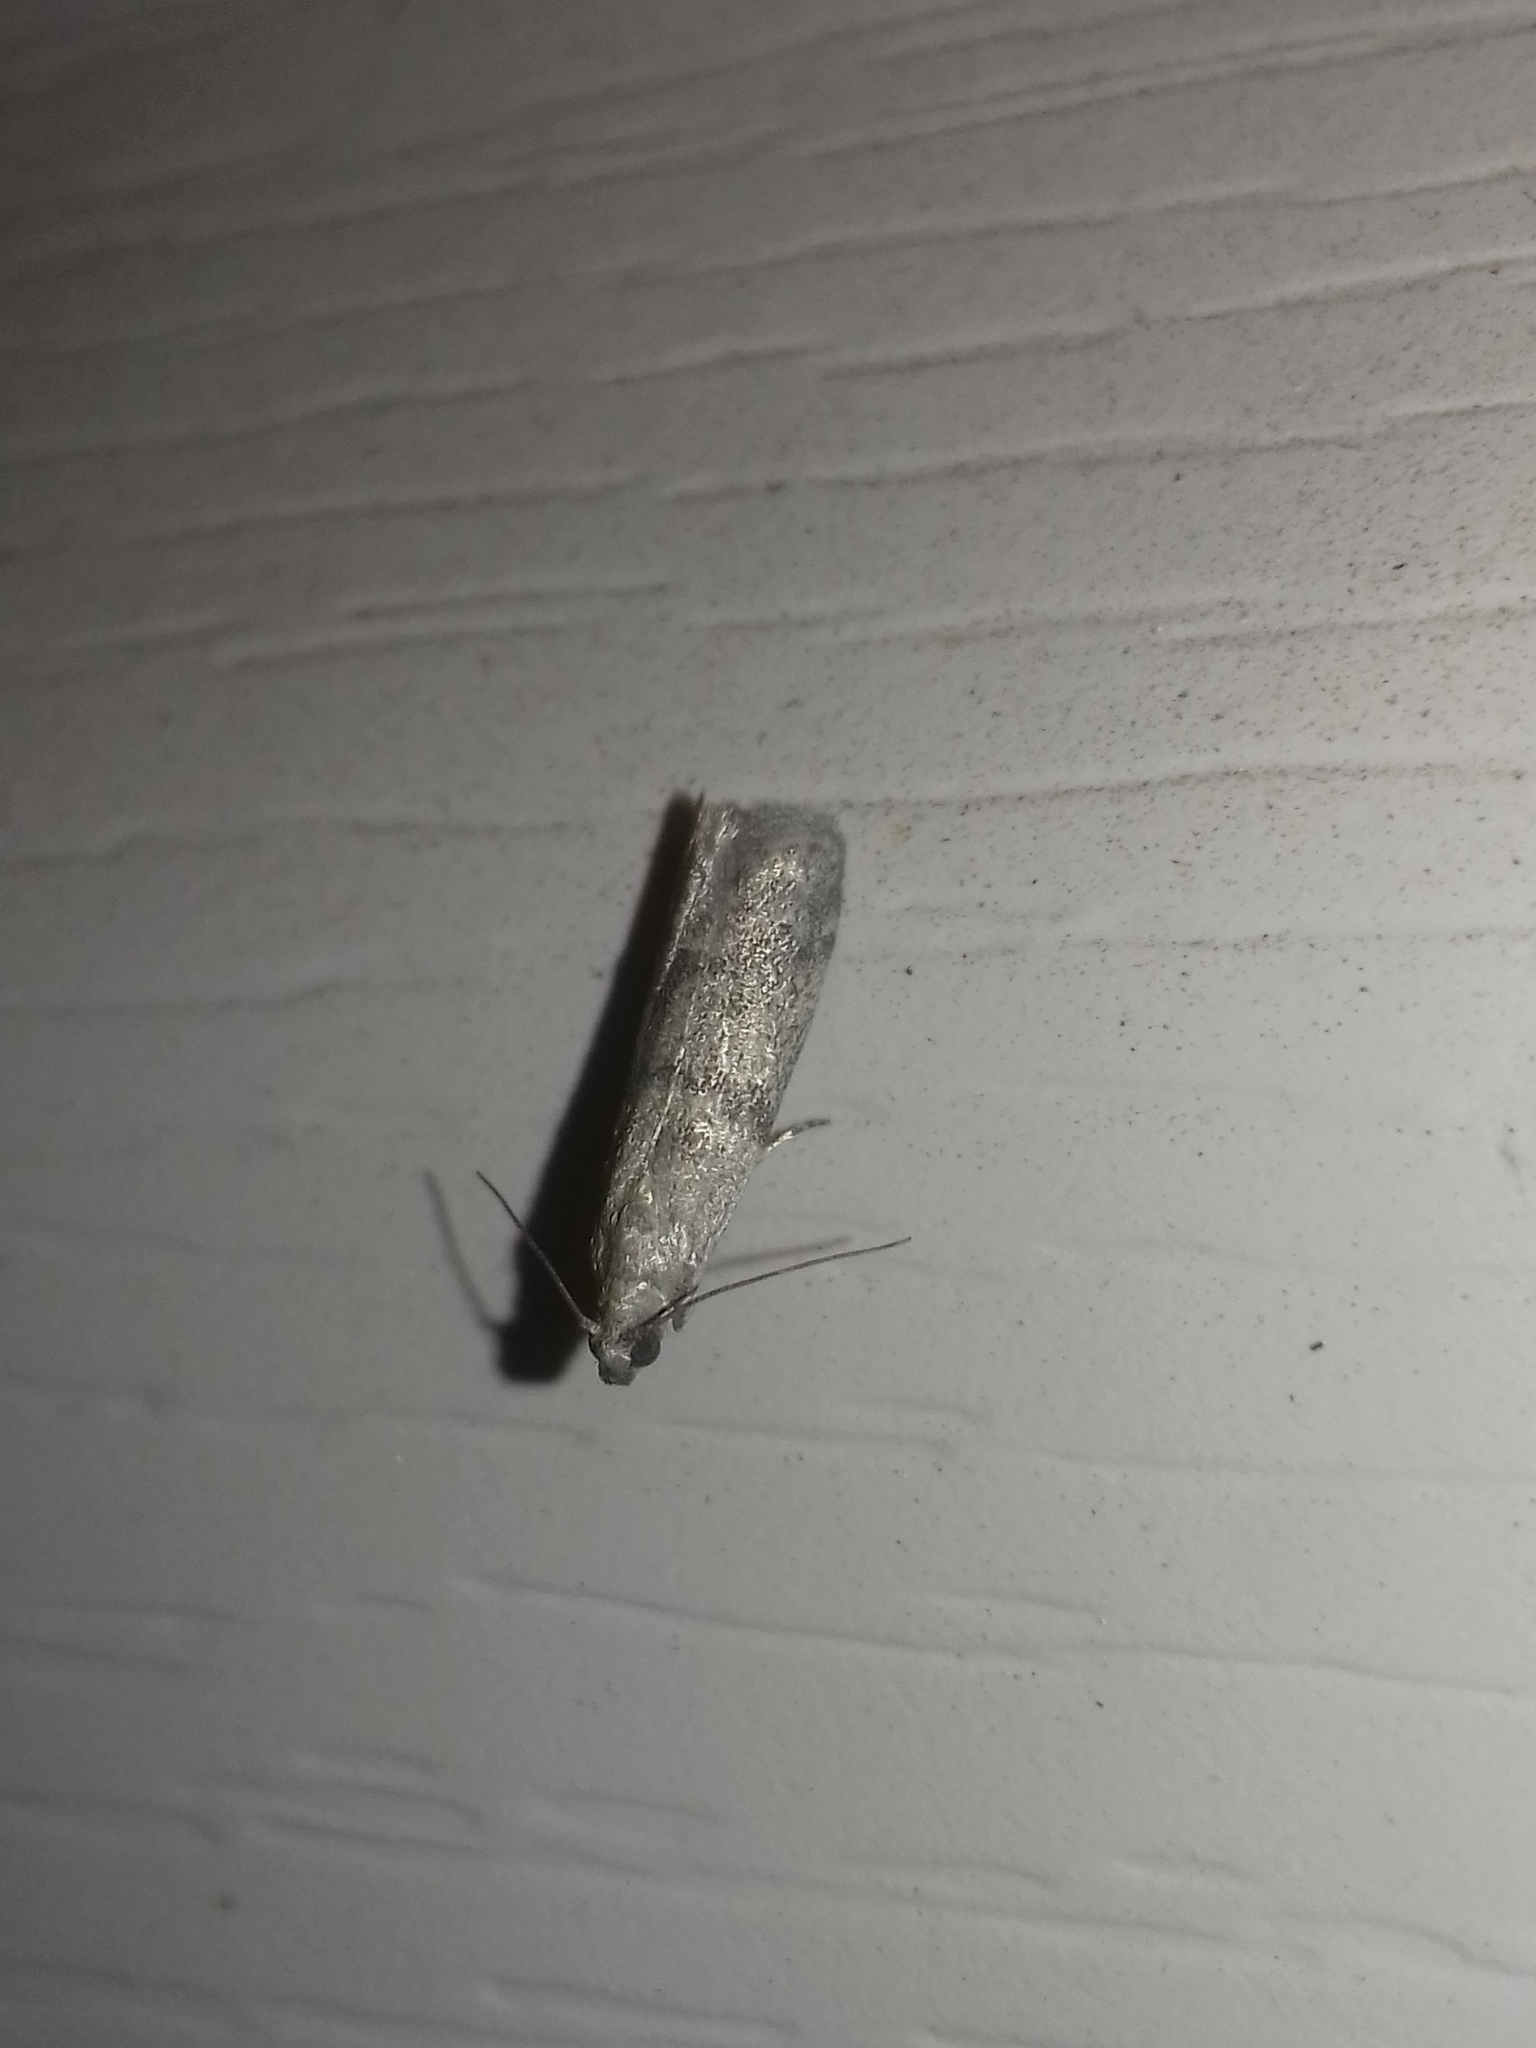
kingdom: Animalia
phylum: Arthropoda
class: Insecta
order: Lepidoptera
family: Pyralidae
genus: Ephestia
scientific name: Ephestia parasitella
